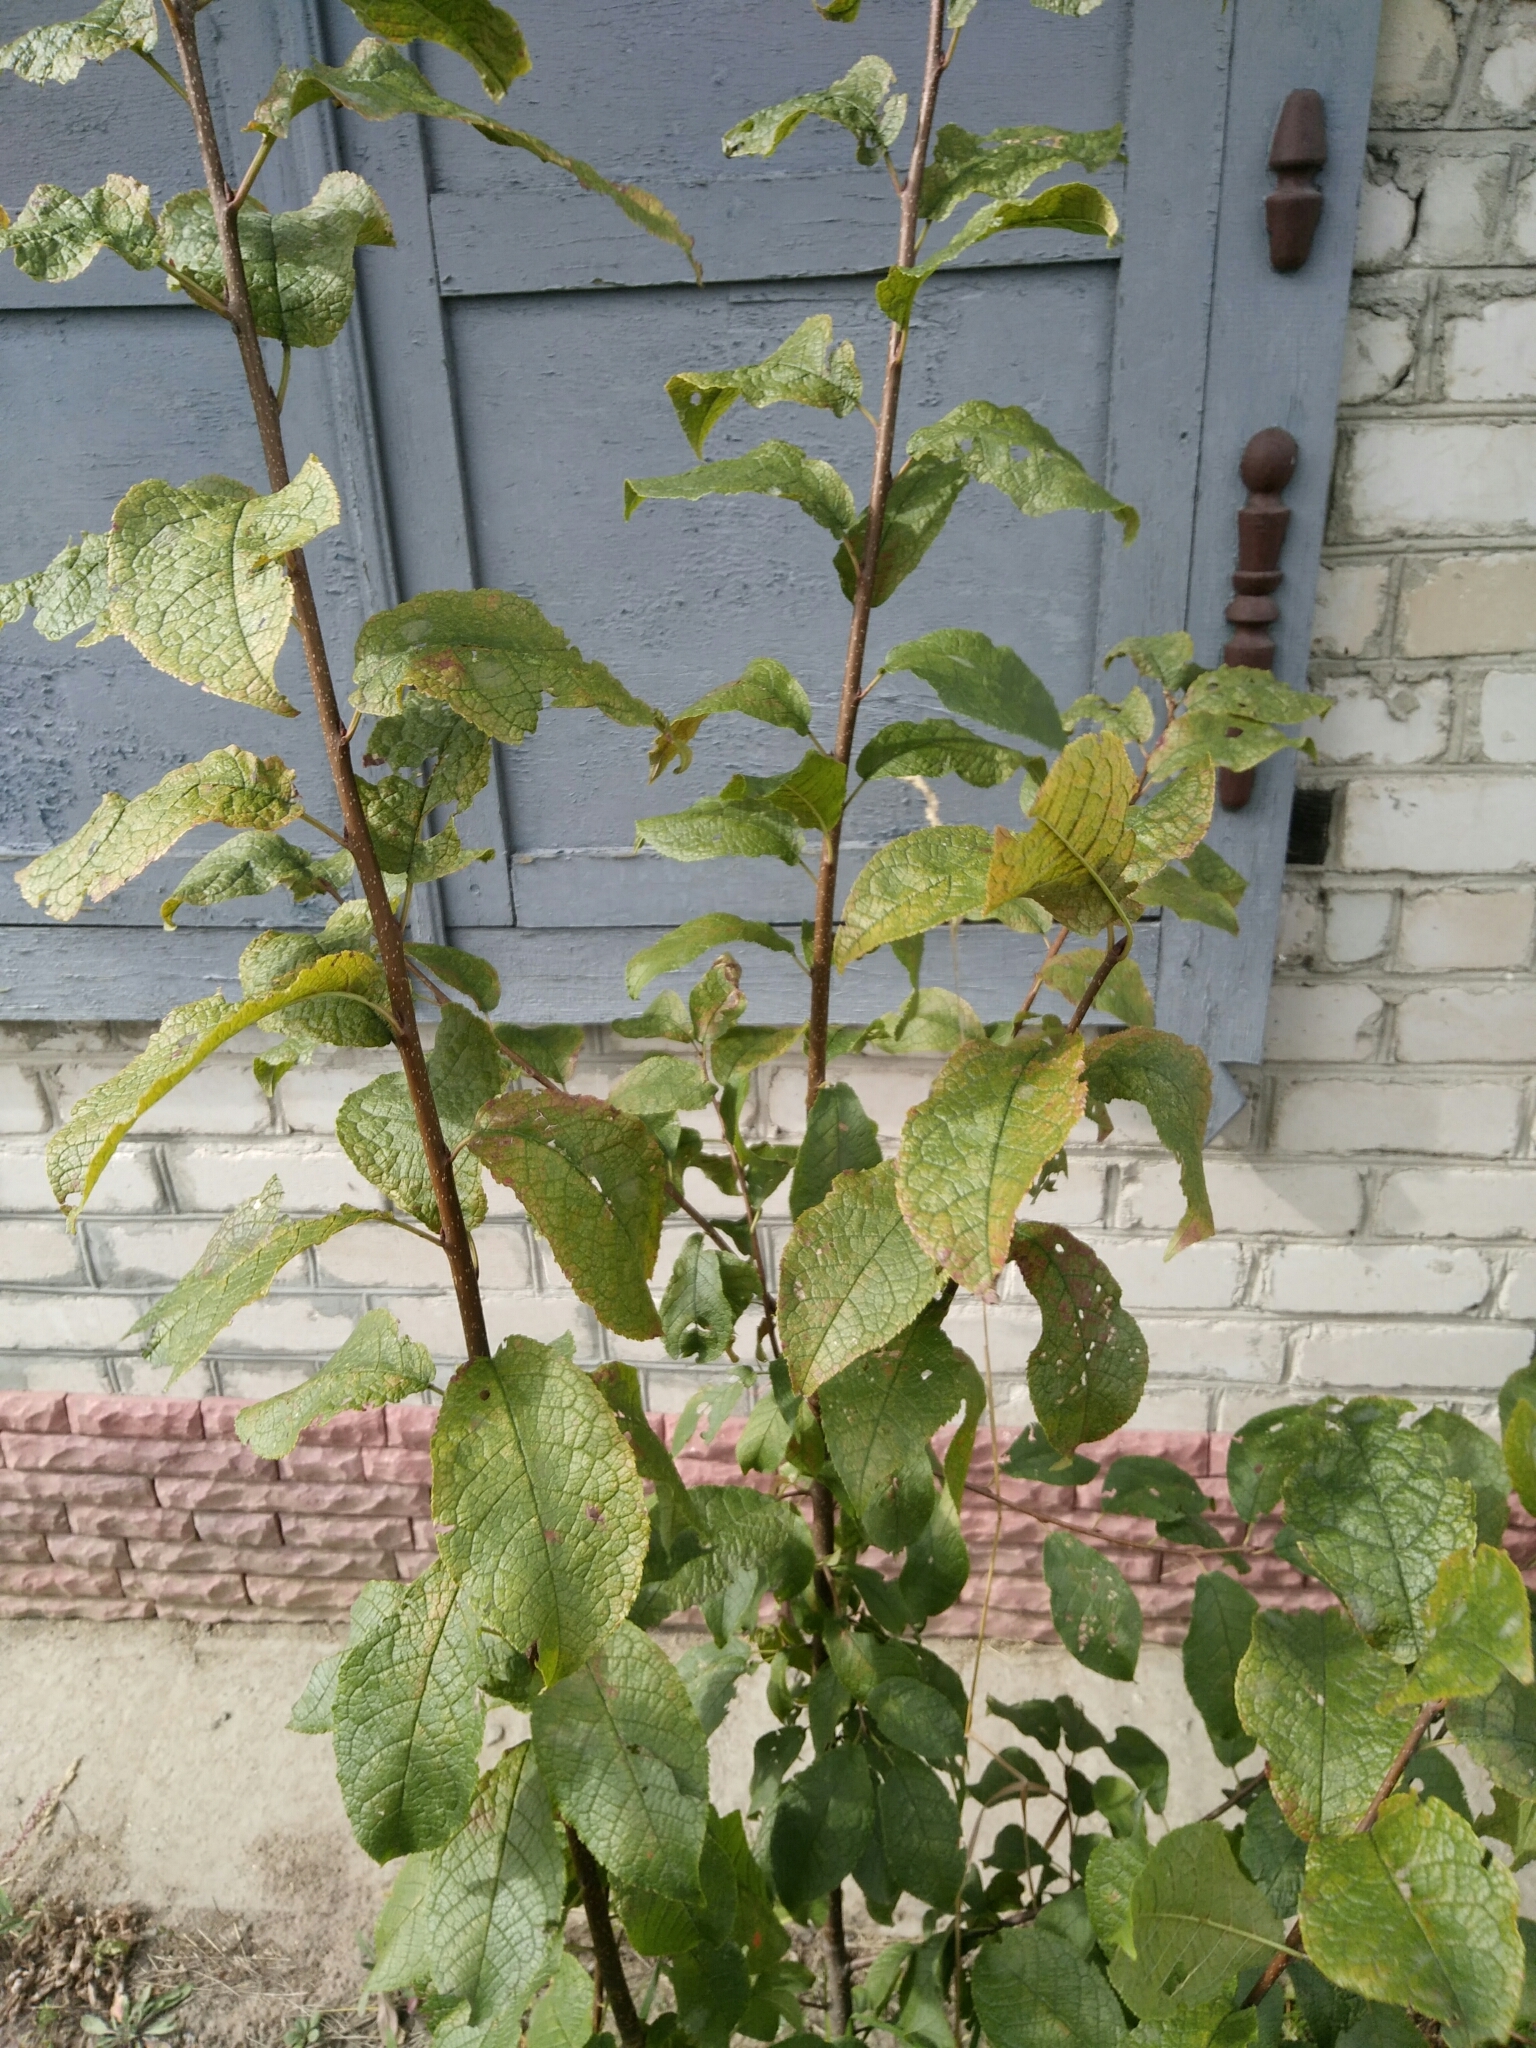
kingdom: Plantae
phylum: Tracheophyta
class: Magnoliopsida
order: Rosales
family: Rosaceae
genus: Prunus
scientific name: Prunus padus
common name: Bird cherry
